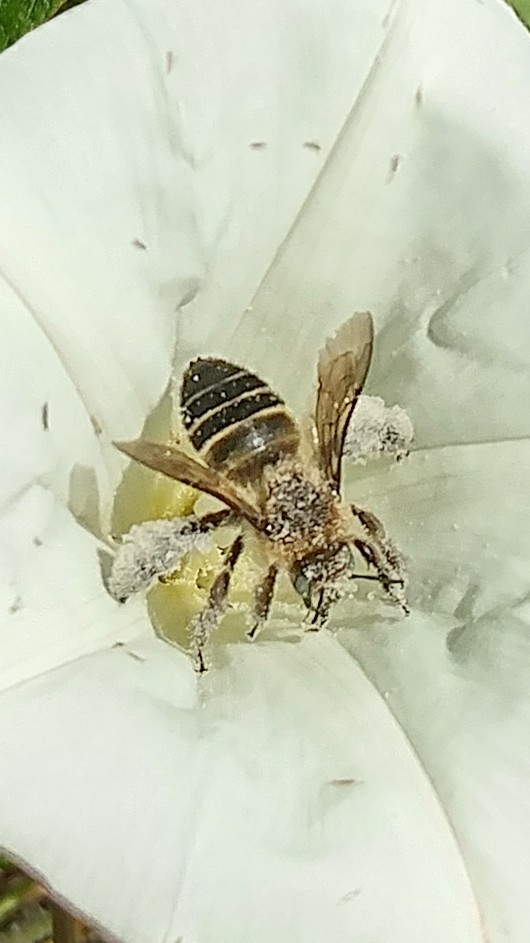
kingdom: Animalia
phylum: Arthropoda
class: Insecta
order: Hymenoptera
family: Apidae
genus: Diadasia
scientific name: Diadasia bituberculata
